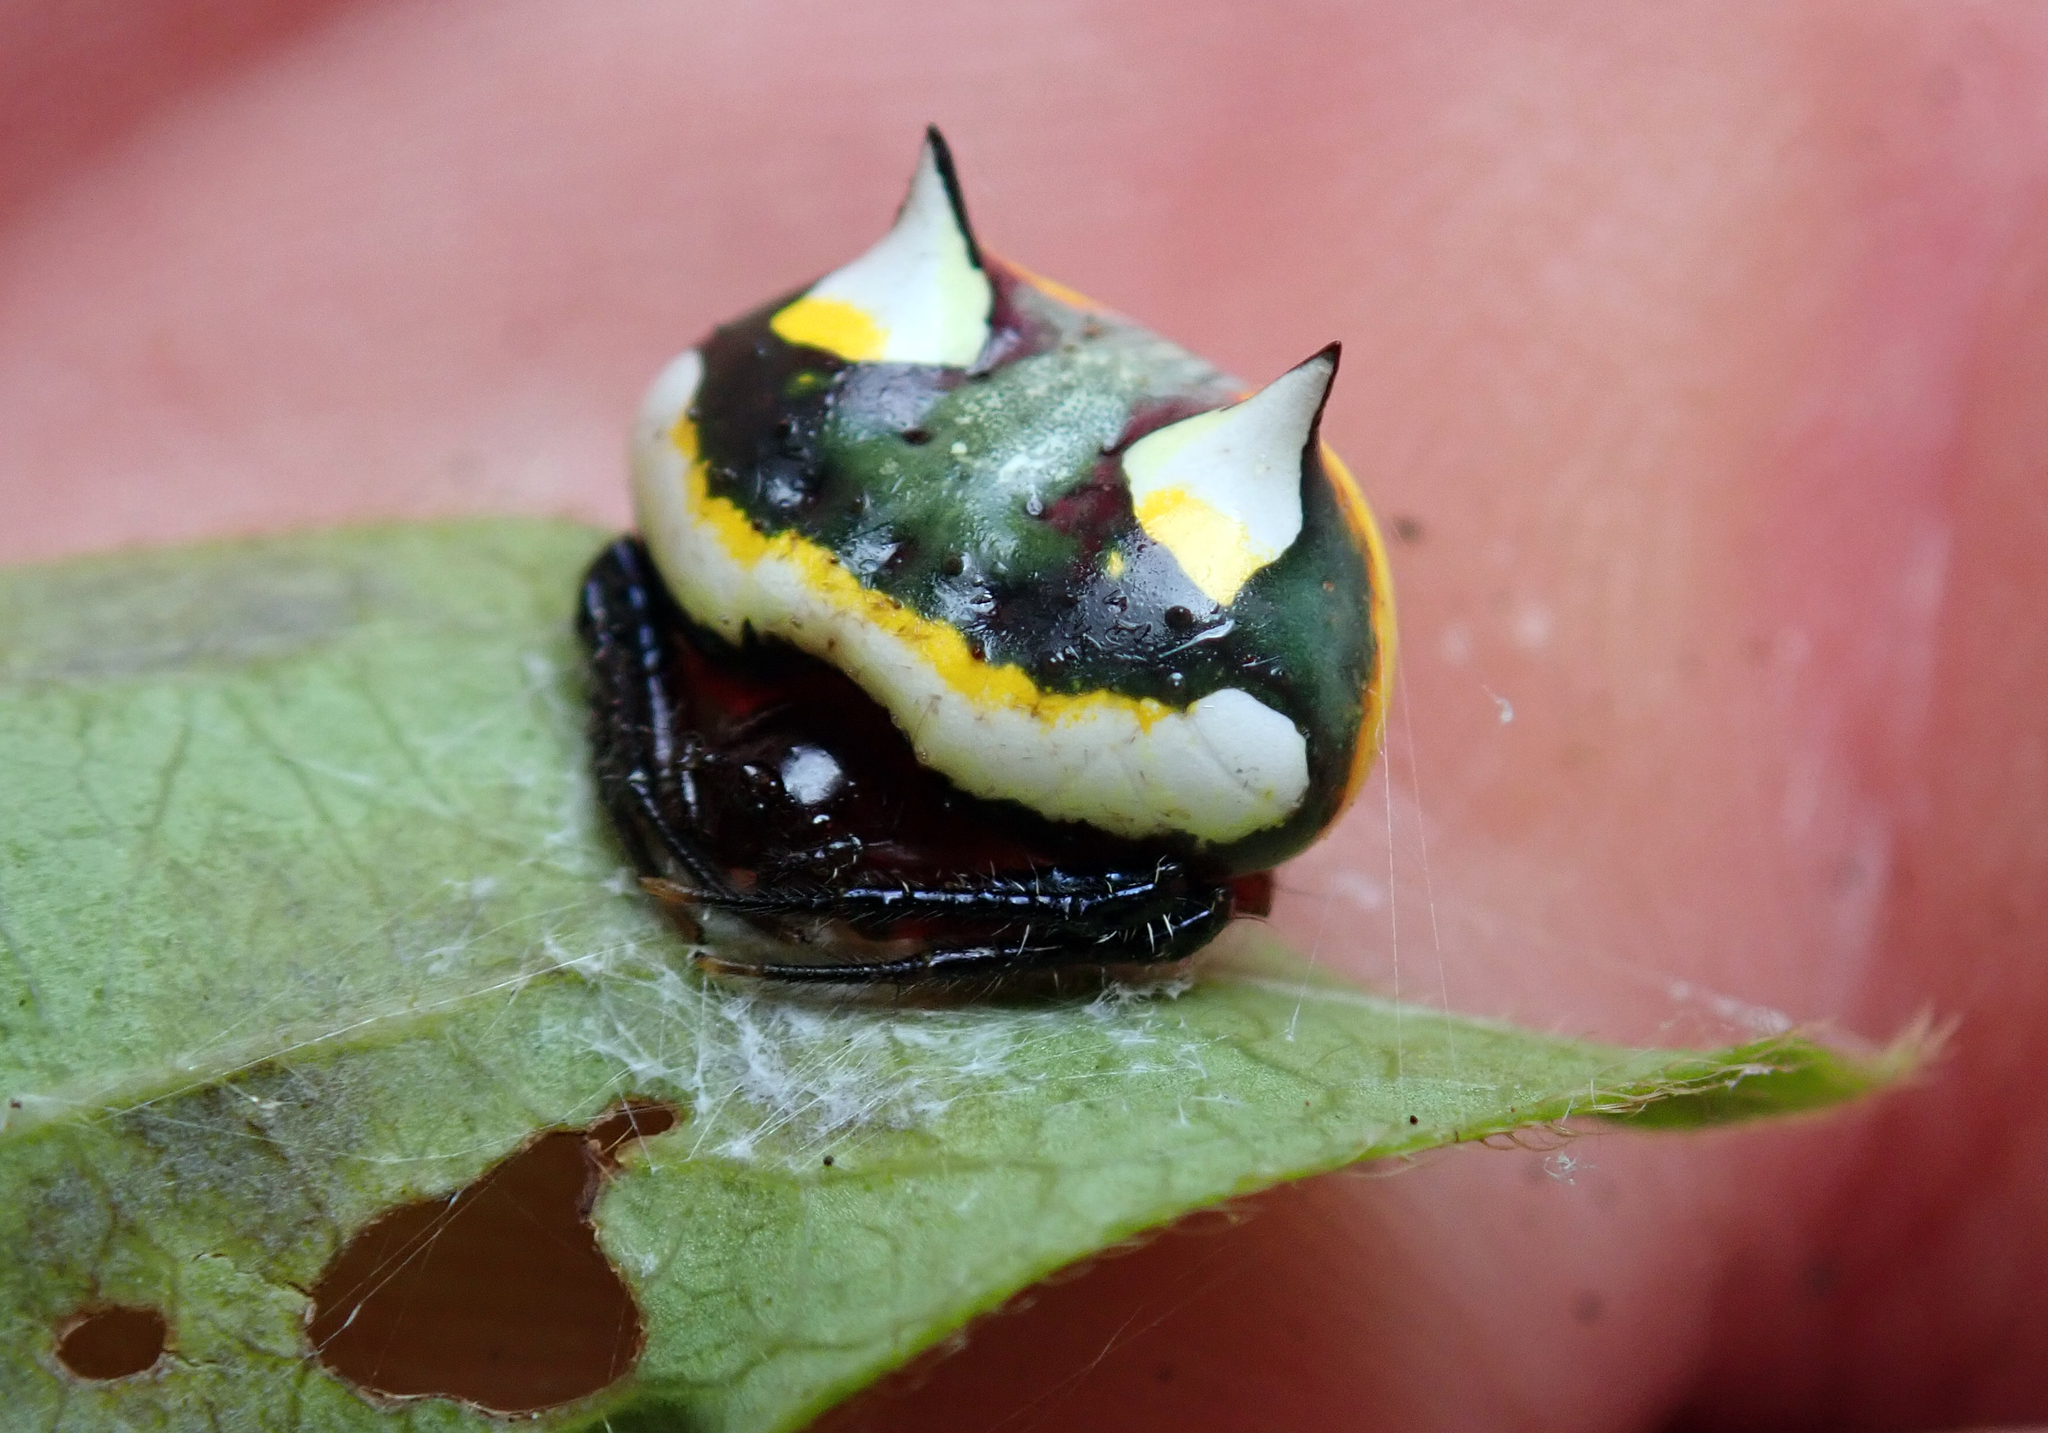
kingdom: Animalia
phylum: Arthropoda
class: Arachnida
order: Araneae
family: Araneidae
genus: Poecilopachys
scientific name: Poecilopachys australasia
